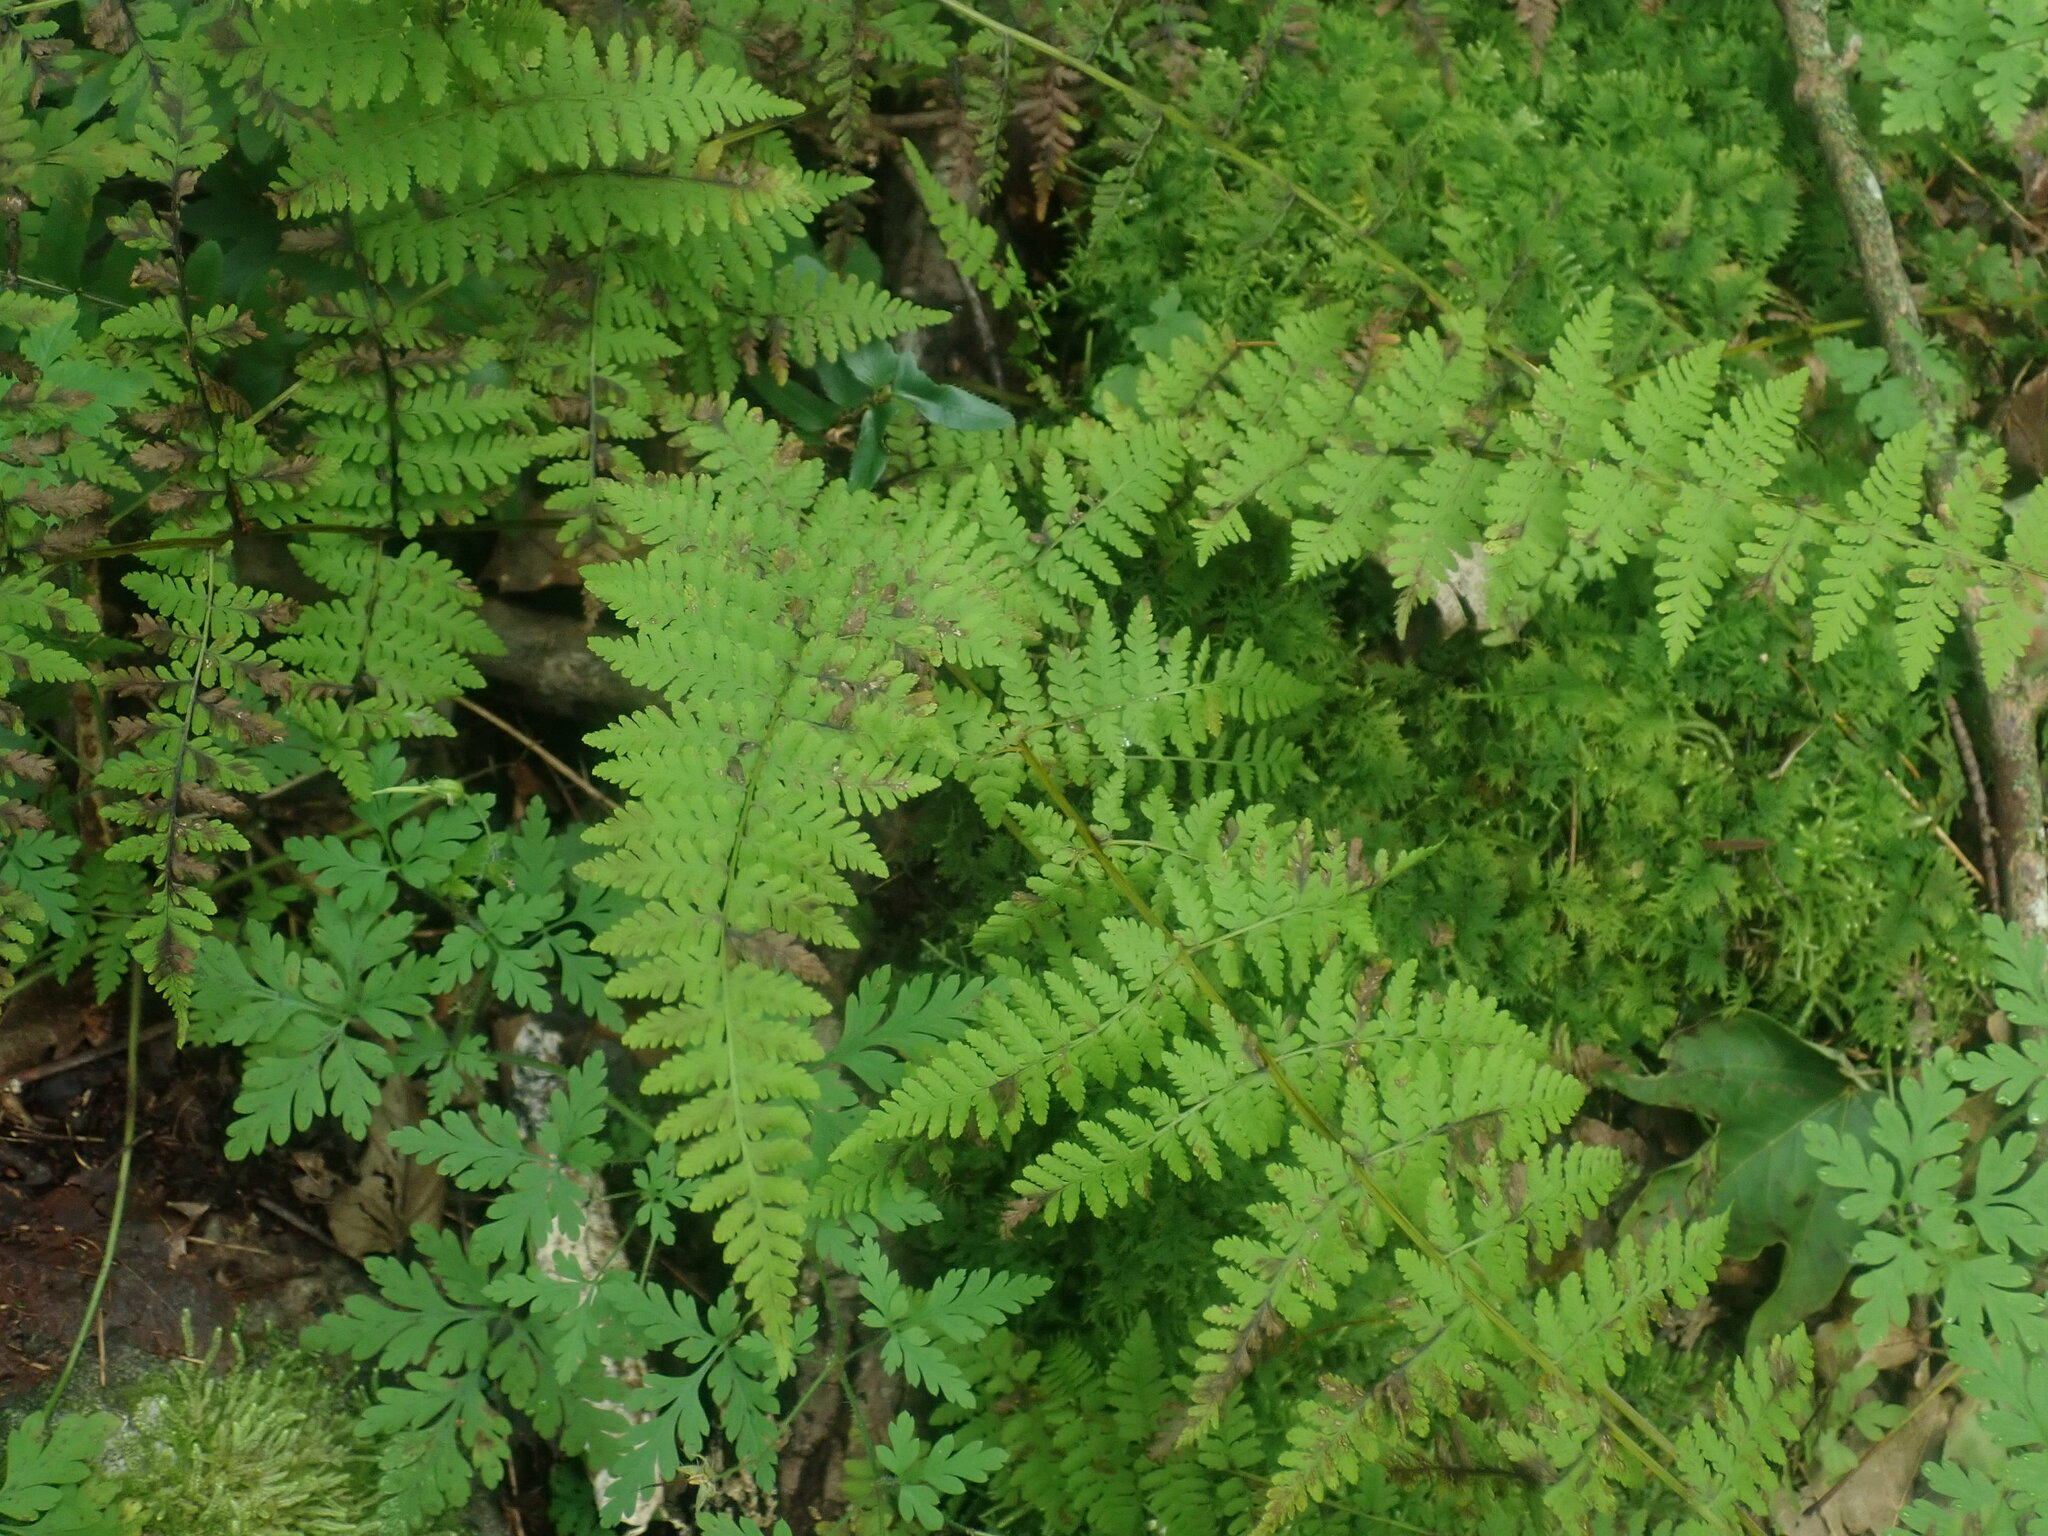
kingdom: Plantae
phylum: Tracheophyta
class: Polypodiopsida
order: Polypodiales
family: Cystopteridaceae
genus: Cystopteris
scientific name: Cystopteris bulbifera
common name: Bulblet bladder fern
